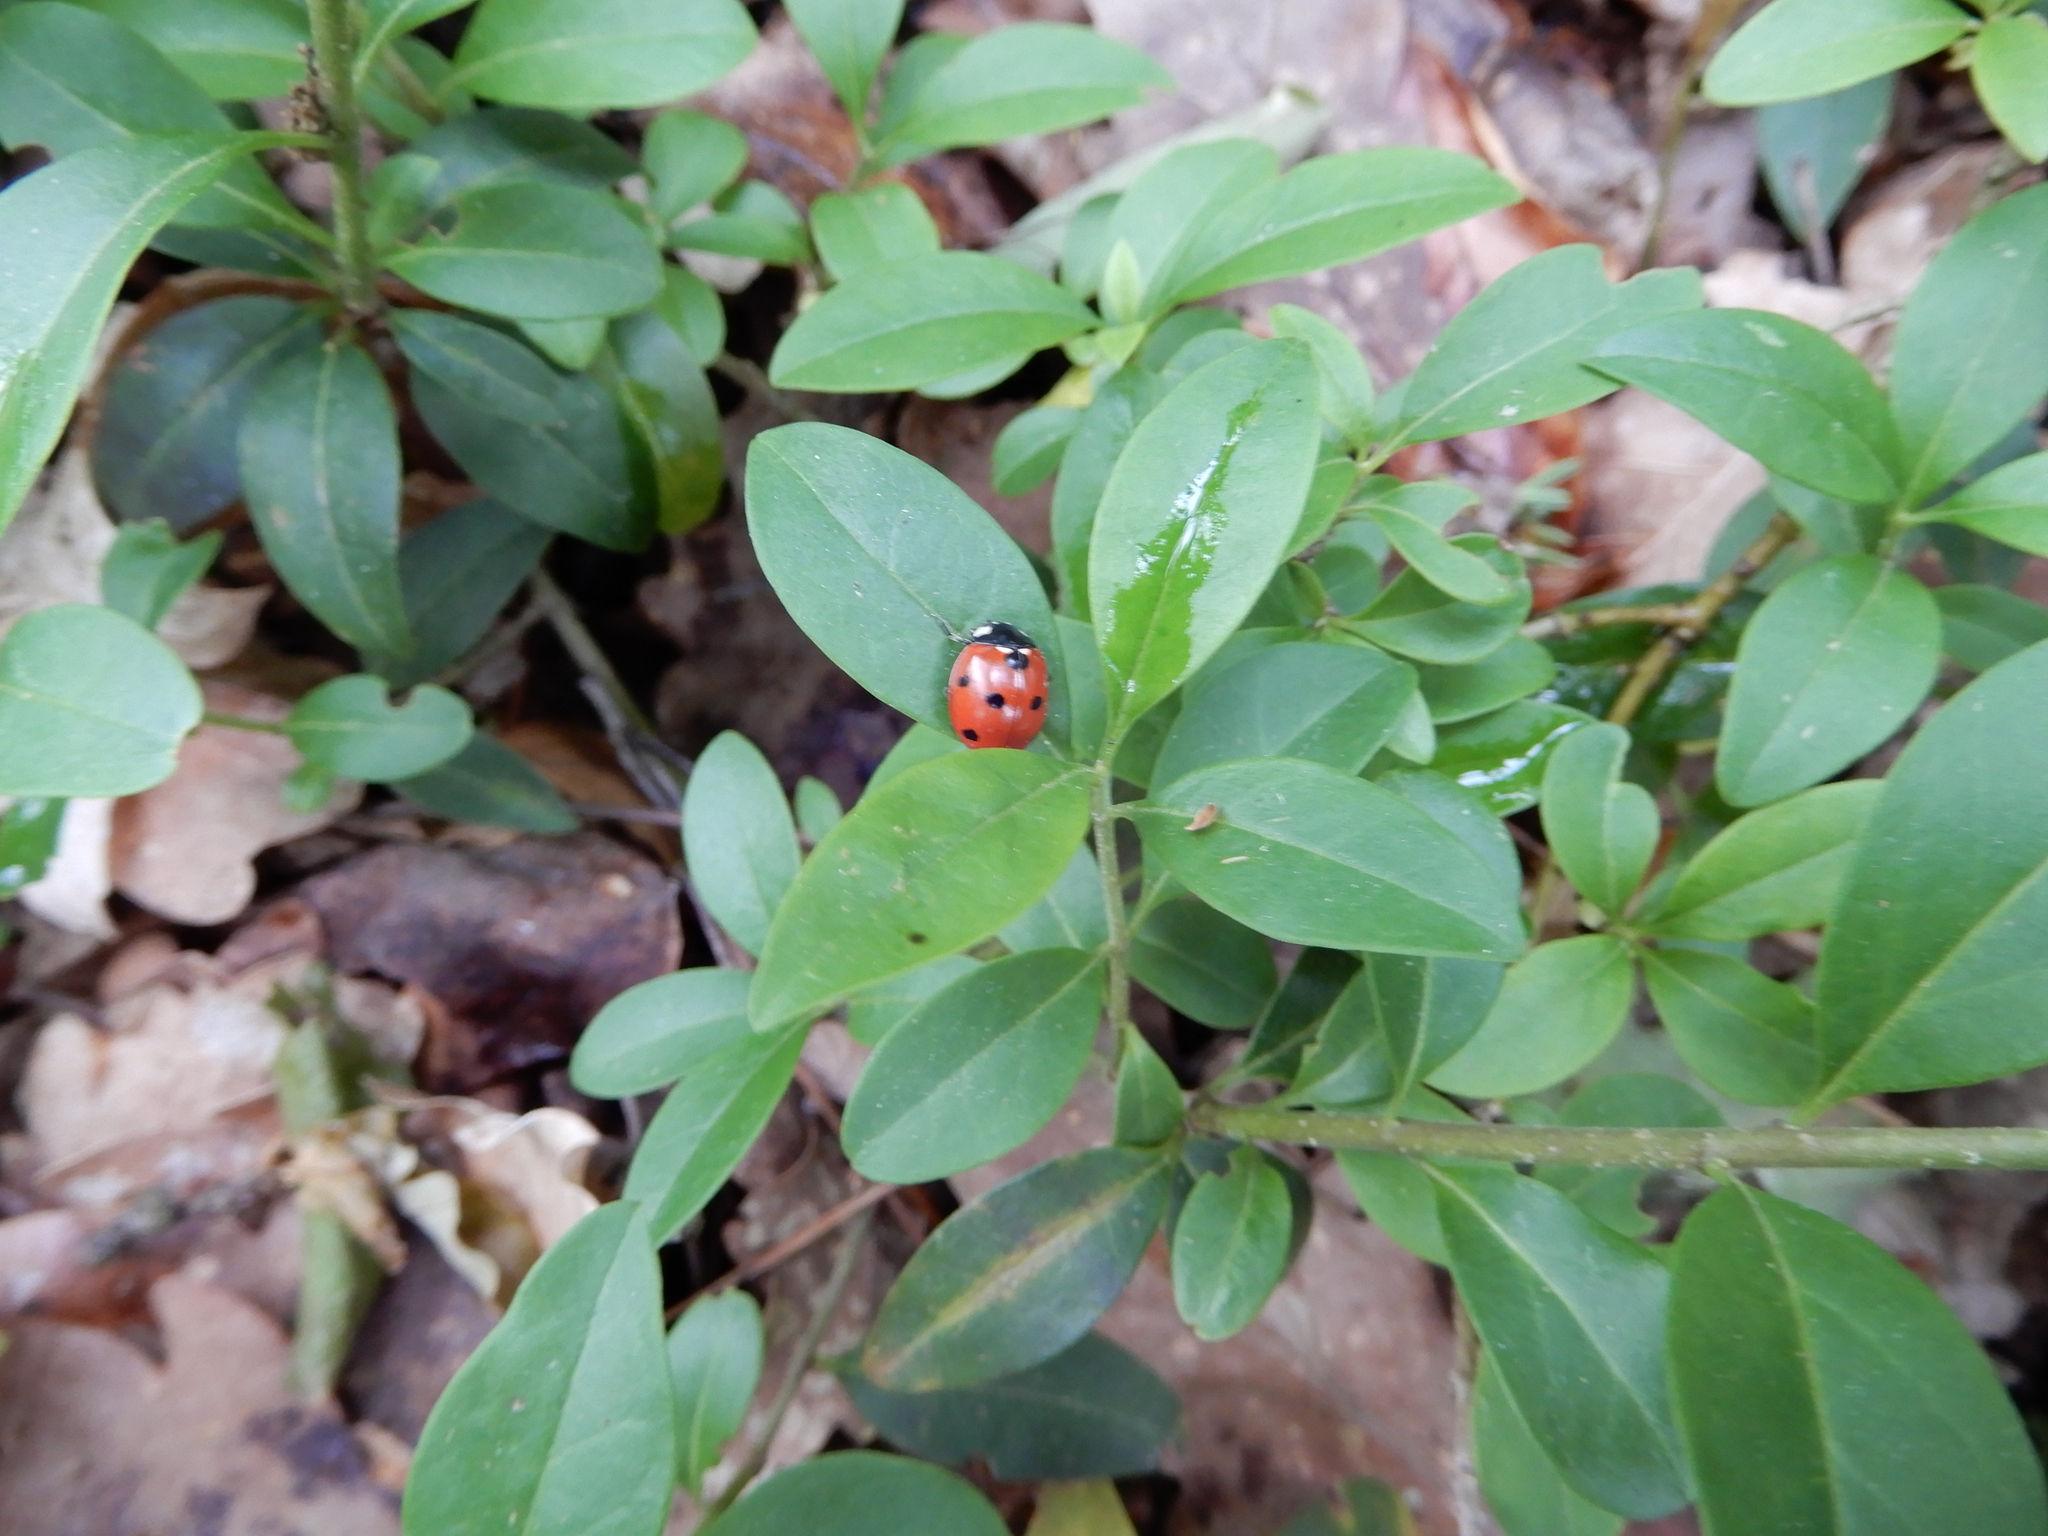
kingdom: Animalia
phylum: Arthropoda
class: Insecta
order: Coleoptera
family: Coccinellidae
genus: Coccinella
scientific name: Coccinella septempunctata
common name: Sevenspotted lady beetle
